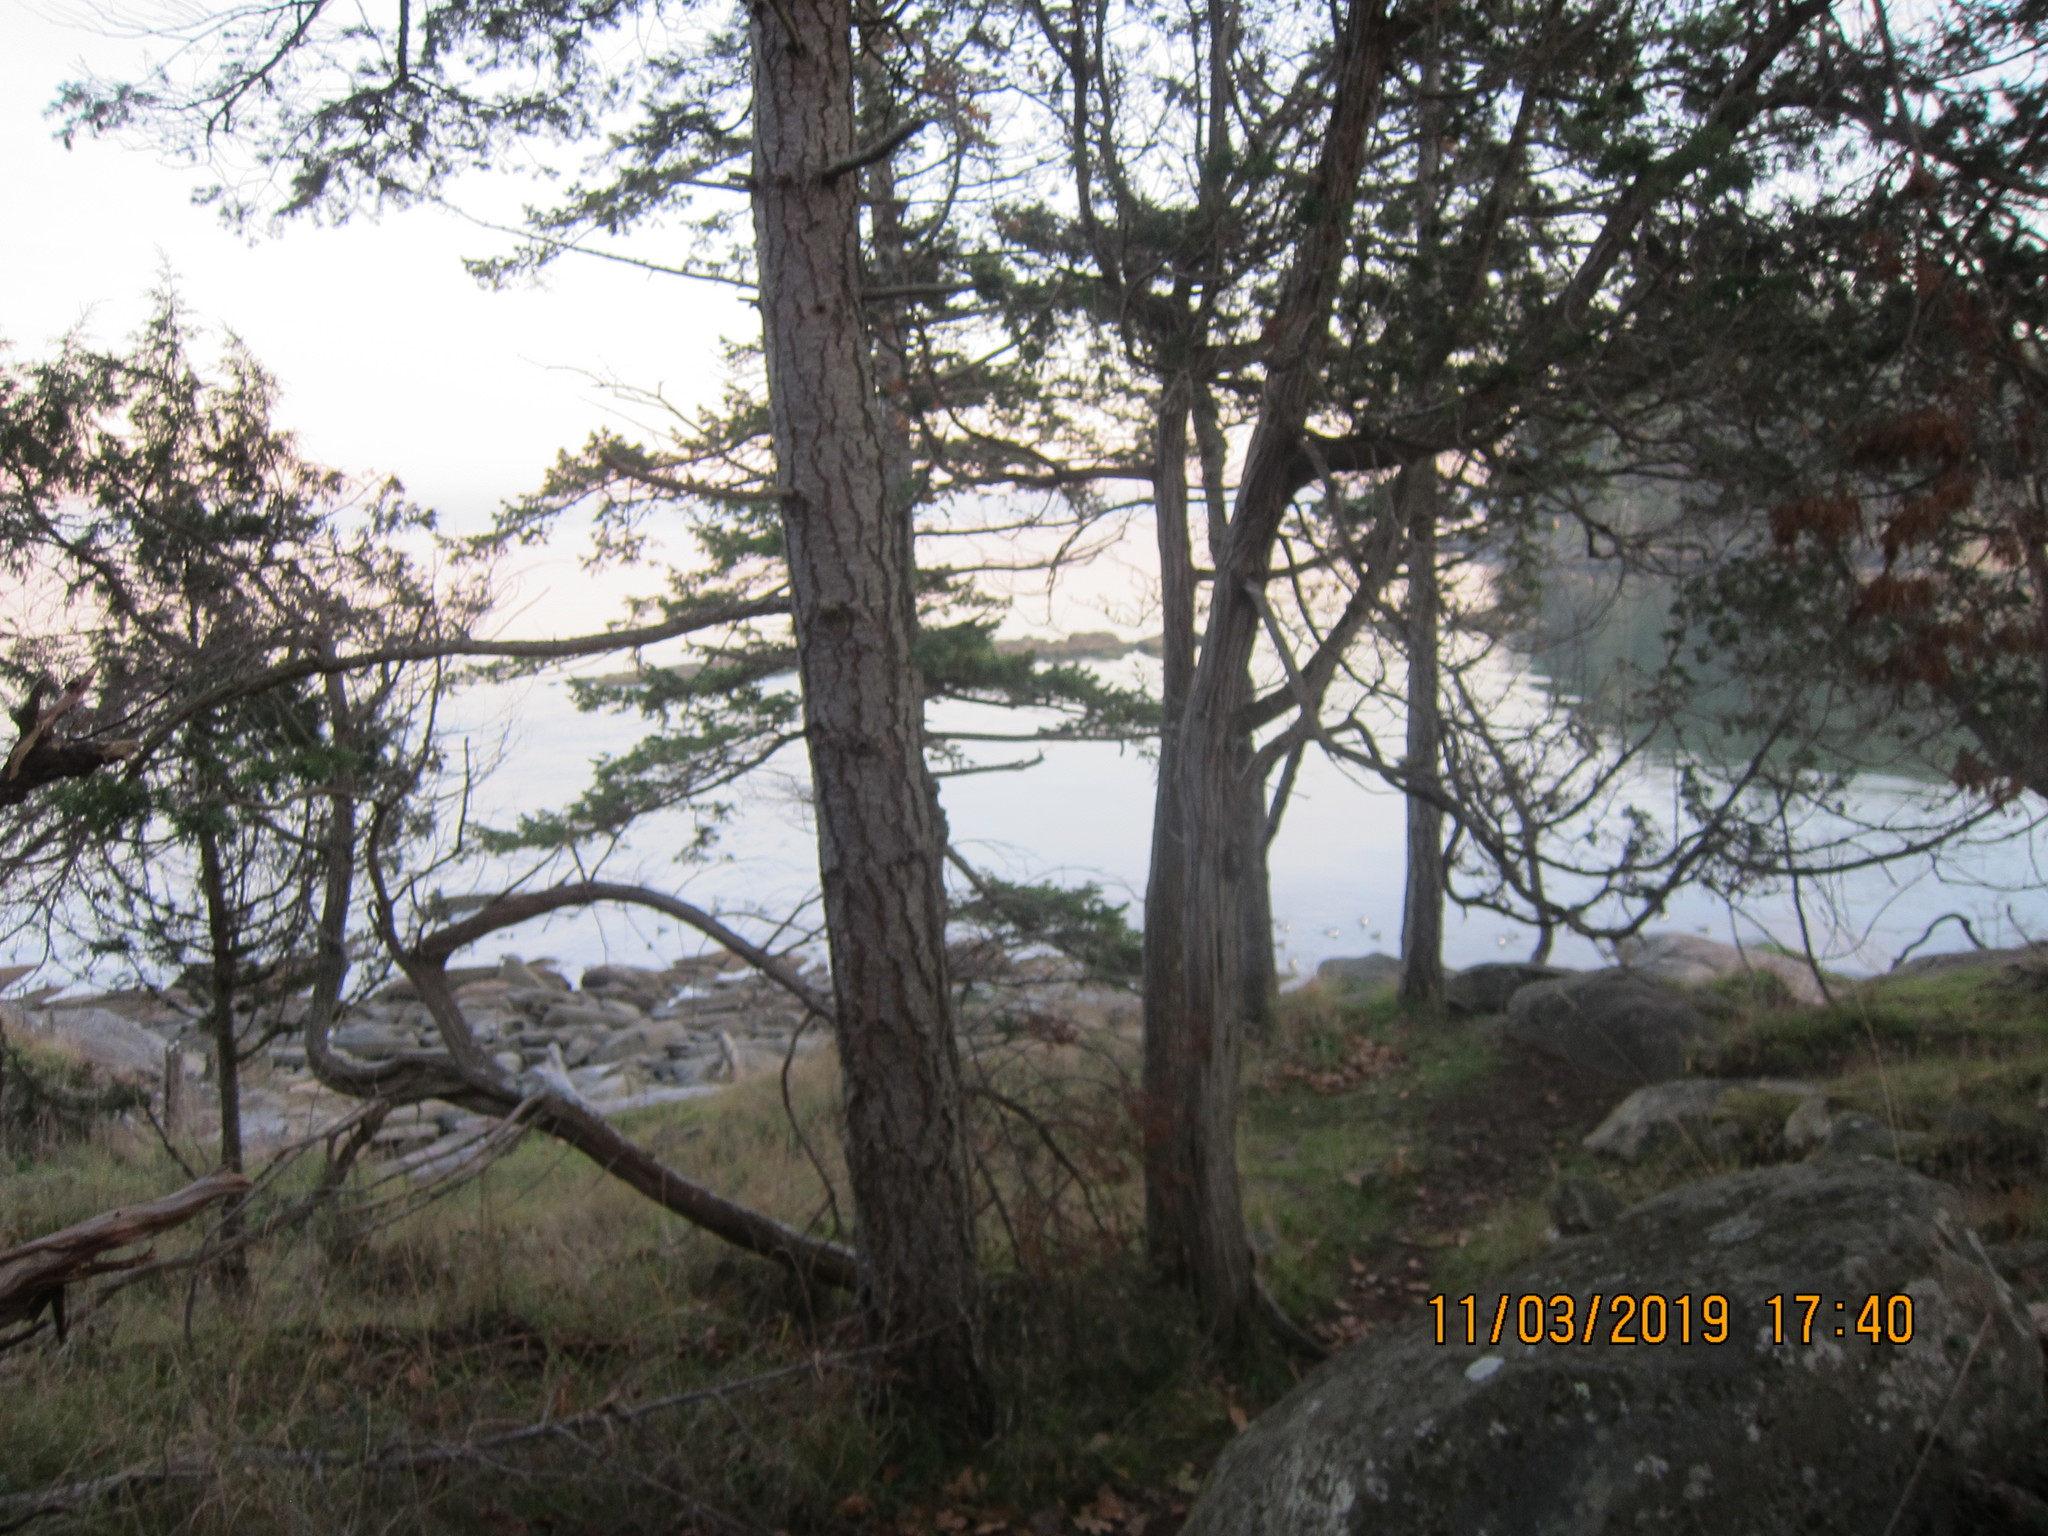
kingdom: Plantae
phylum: Tracheophyta
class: Pinopsida
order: Pinales
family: Pinaceae
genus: Pseudotsuga
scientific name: Pseudotsuga menziesii
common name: Douglas fir
